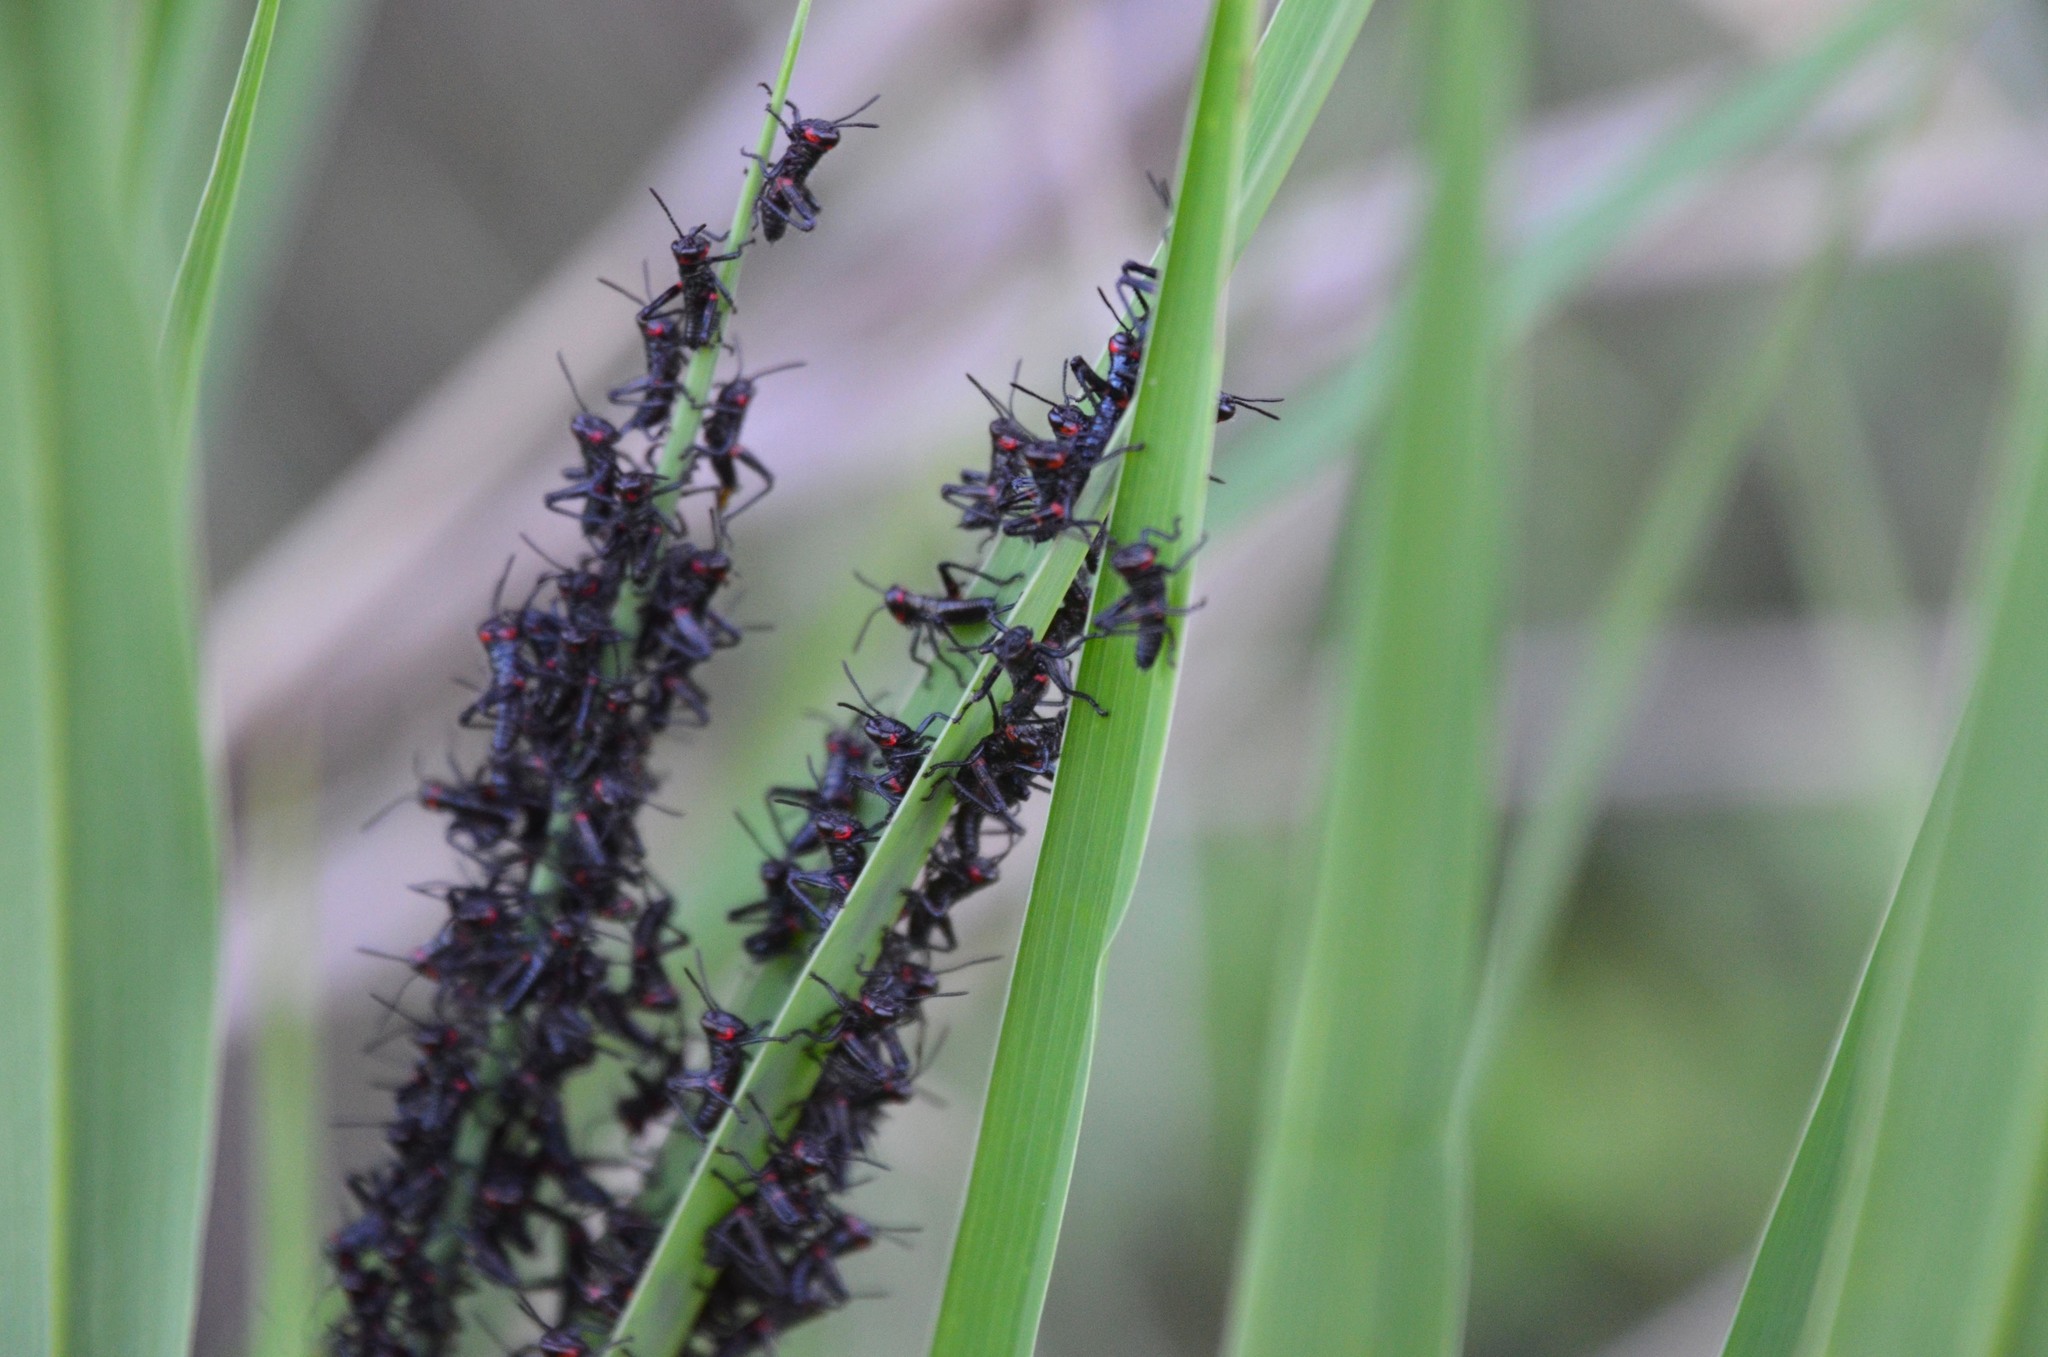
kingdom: Animalia
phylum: Arthropoda
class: Insecta
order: Orthoptera
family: Romaleidae
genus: Chromacris
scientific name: Chromacris speciosa
